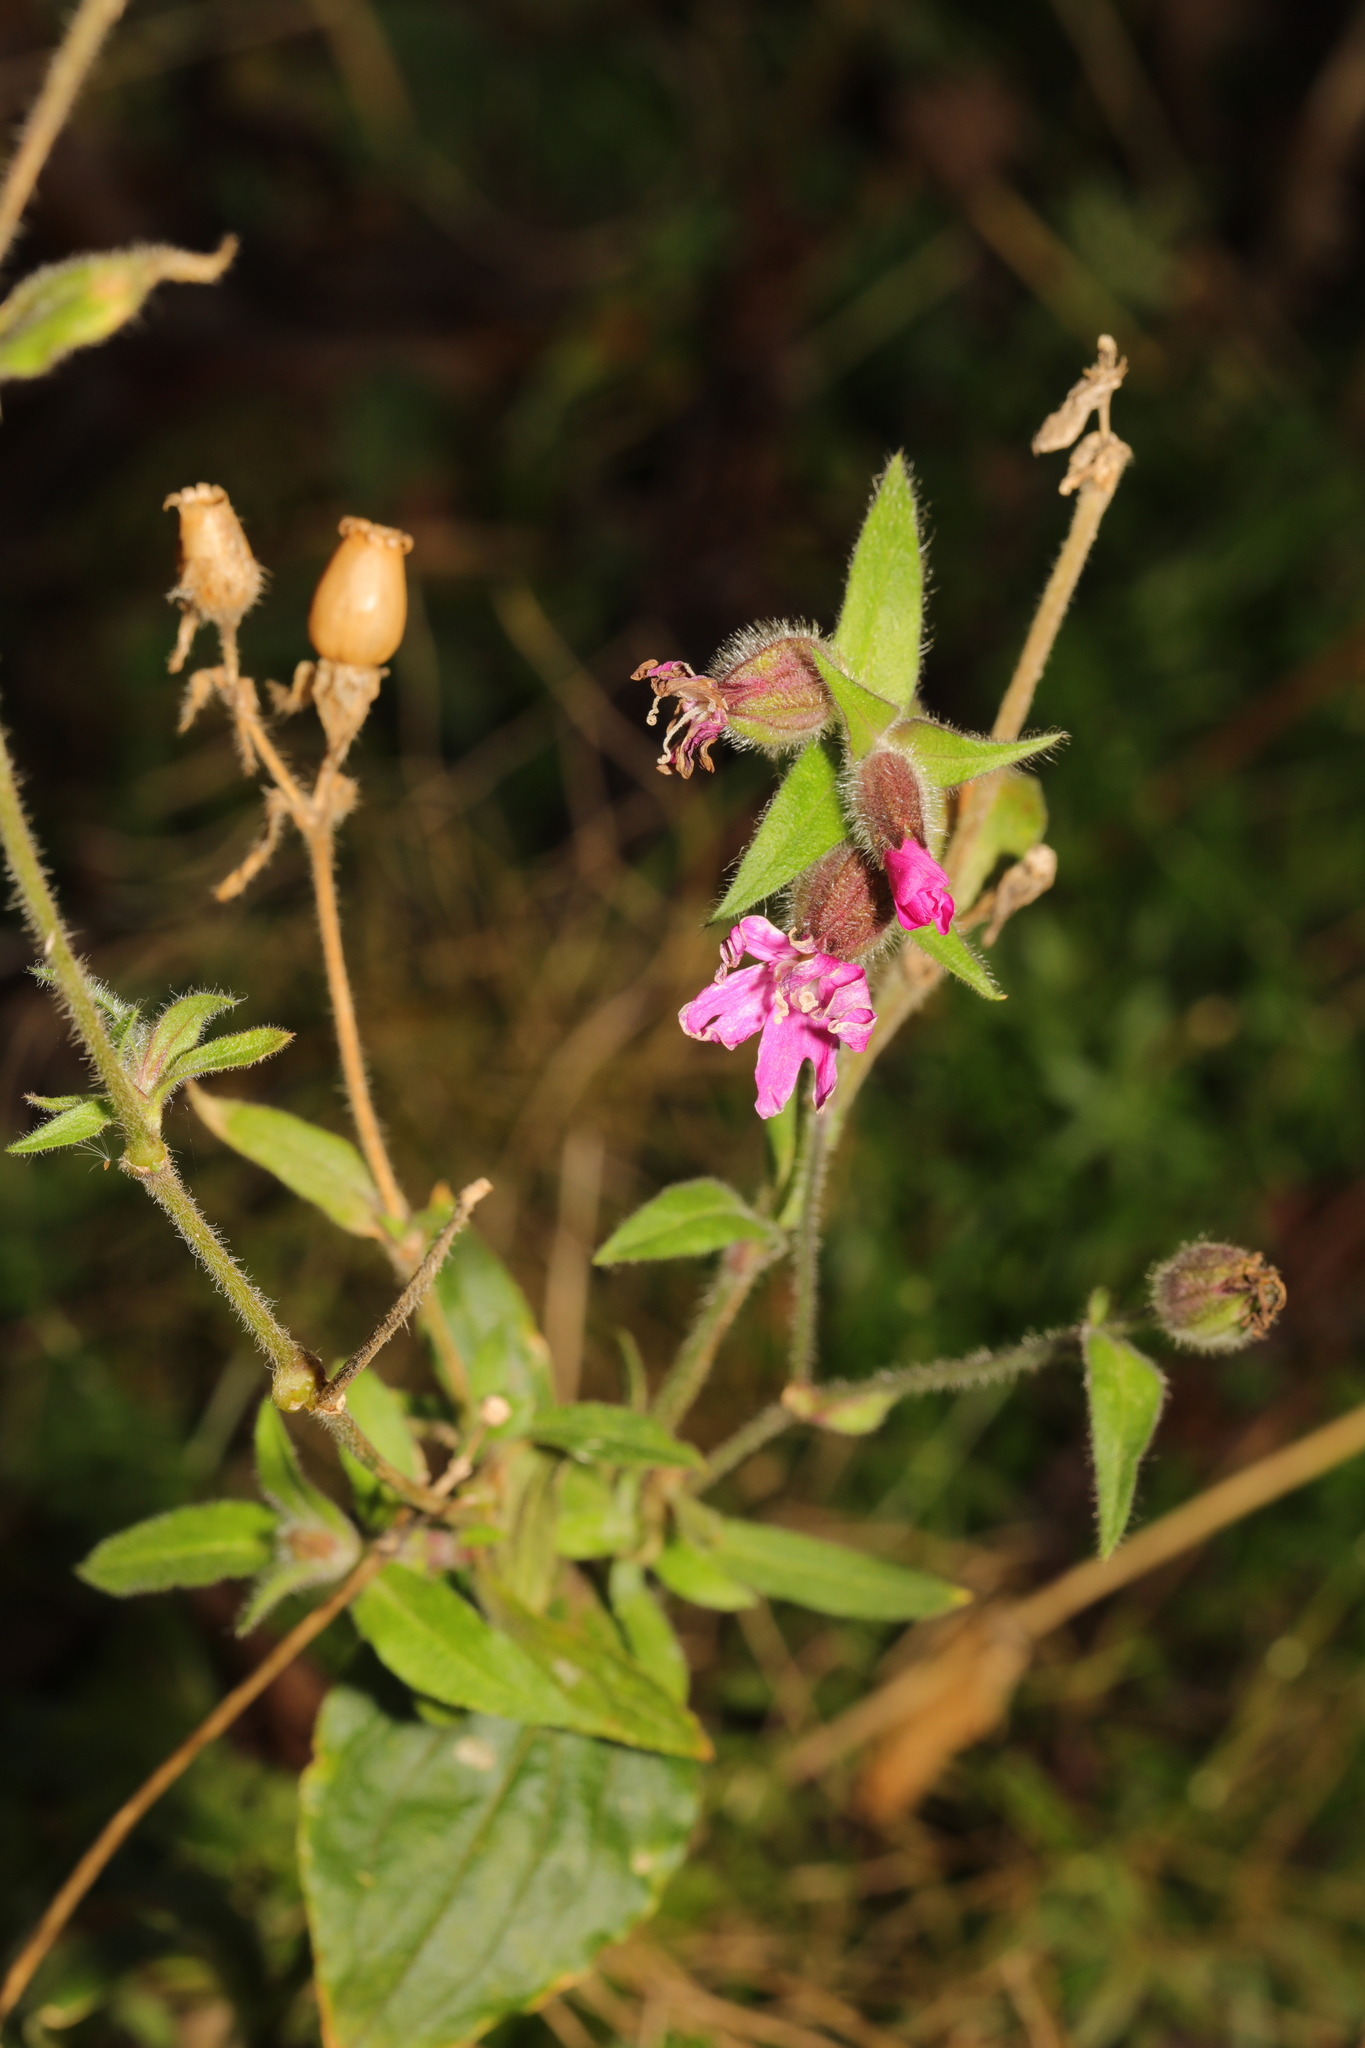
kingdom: Plantae
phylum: Tracheophyta
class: Magnoliopsida
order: Caryophyllales
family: Caryophyllaceae
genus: Silene
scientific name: Silene dioica
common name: Red campion
